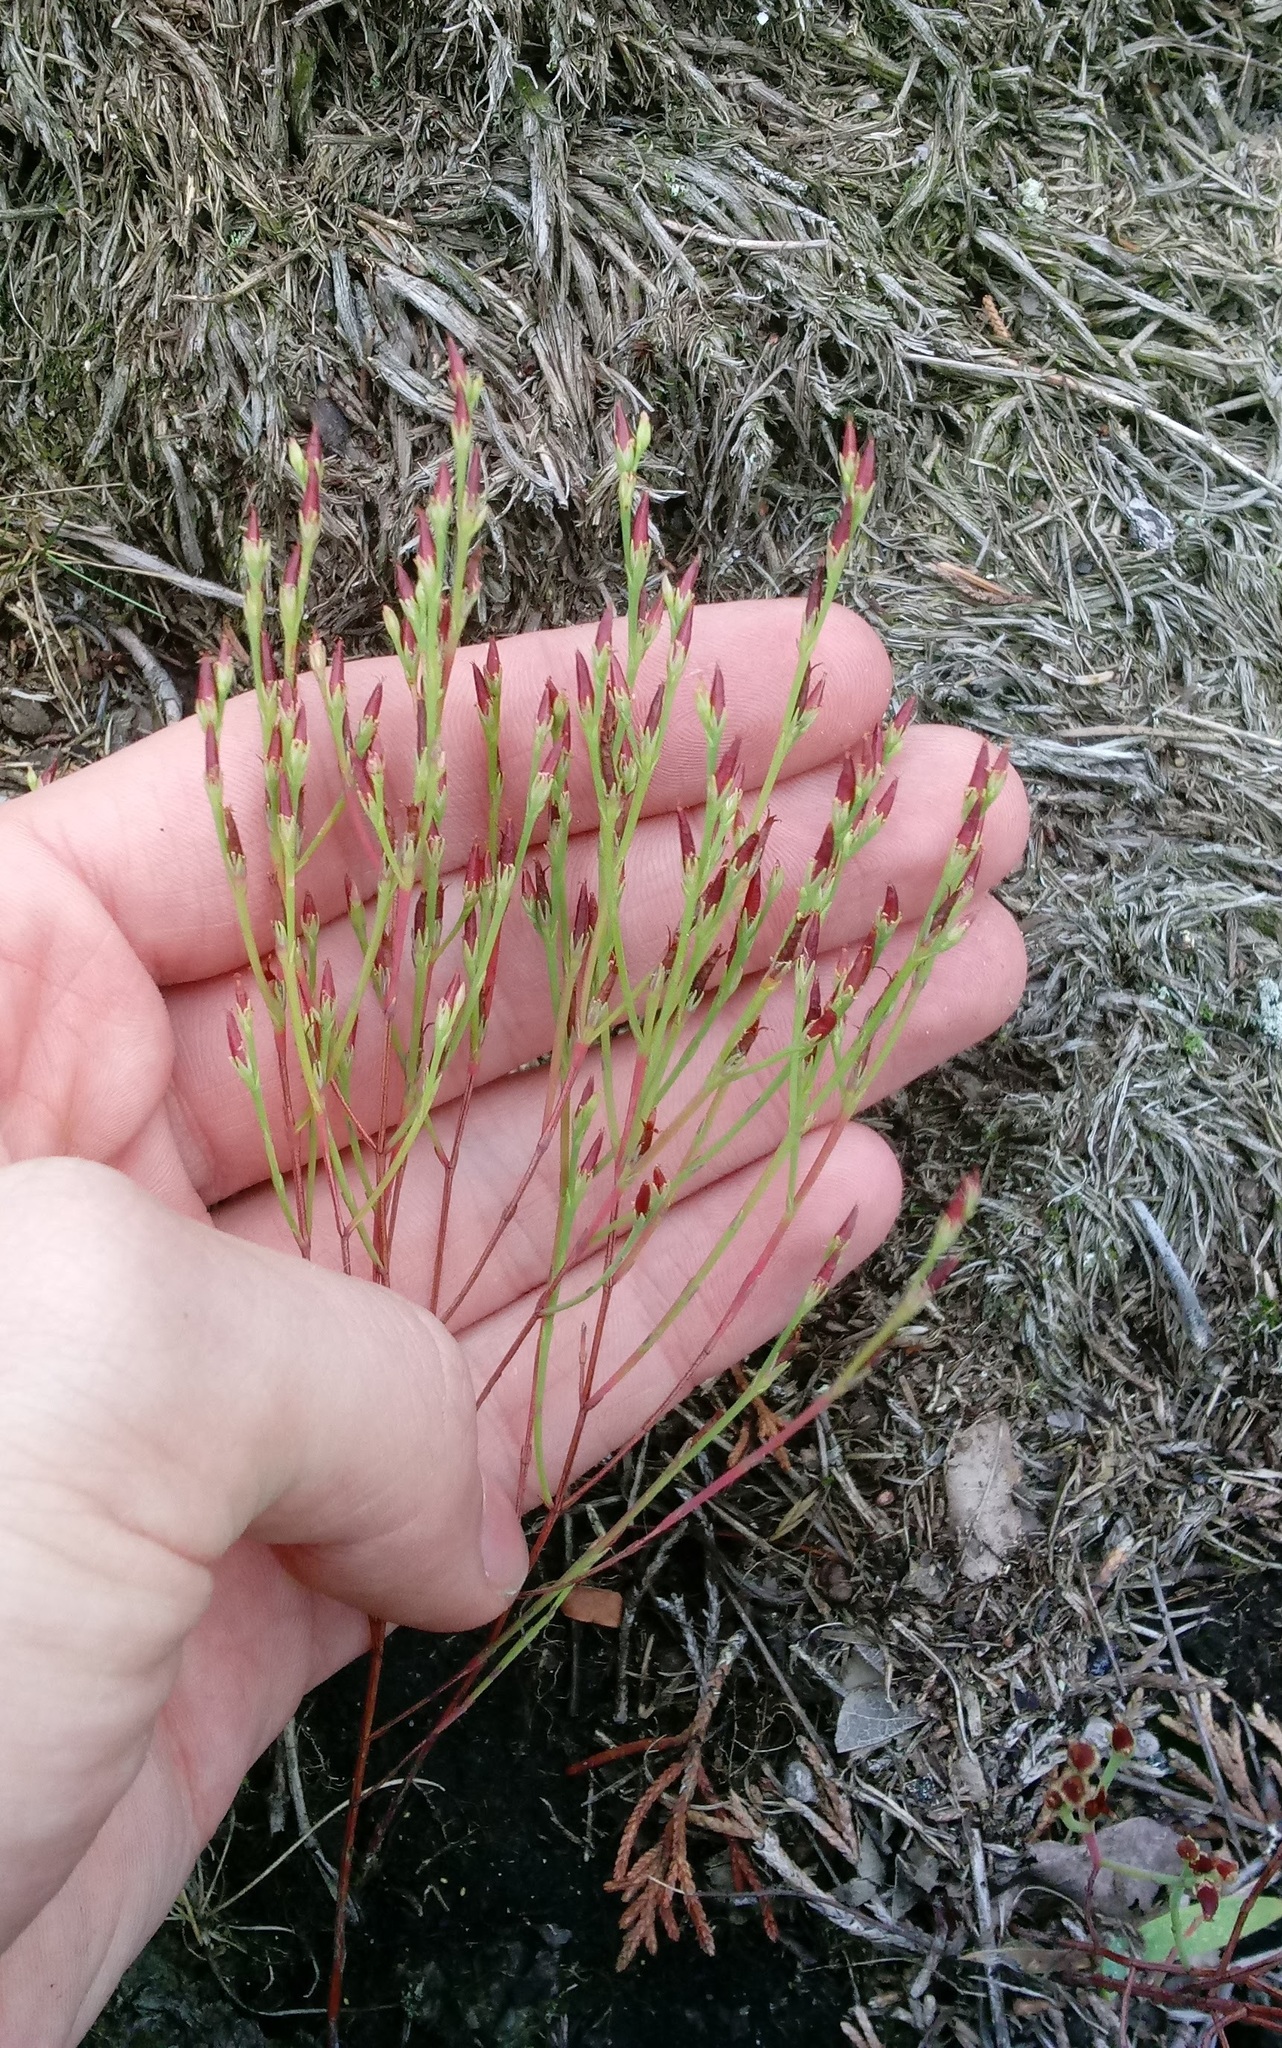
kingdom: Plantae
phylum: Tracheophyta
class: Magnoliopsida
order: Malpighiales
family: Hypericaceae
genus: Hypericum
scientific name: Hypericum gentianoides
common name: Gentian-leaved st. john's-wort
